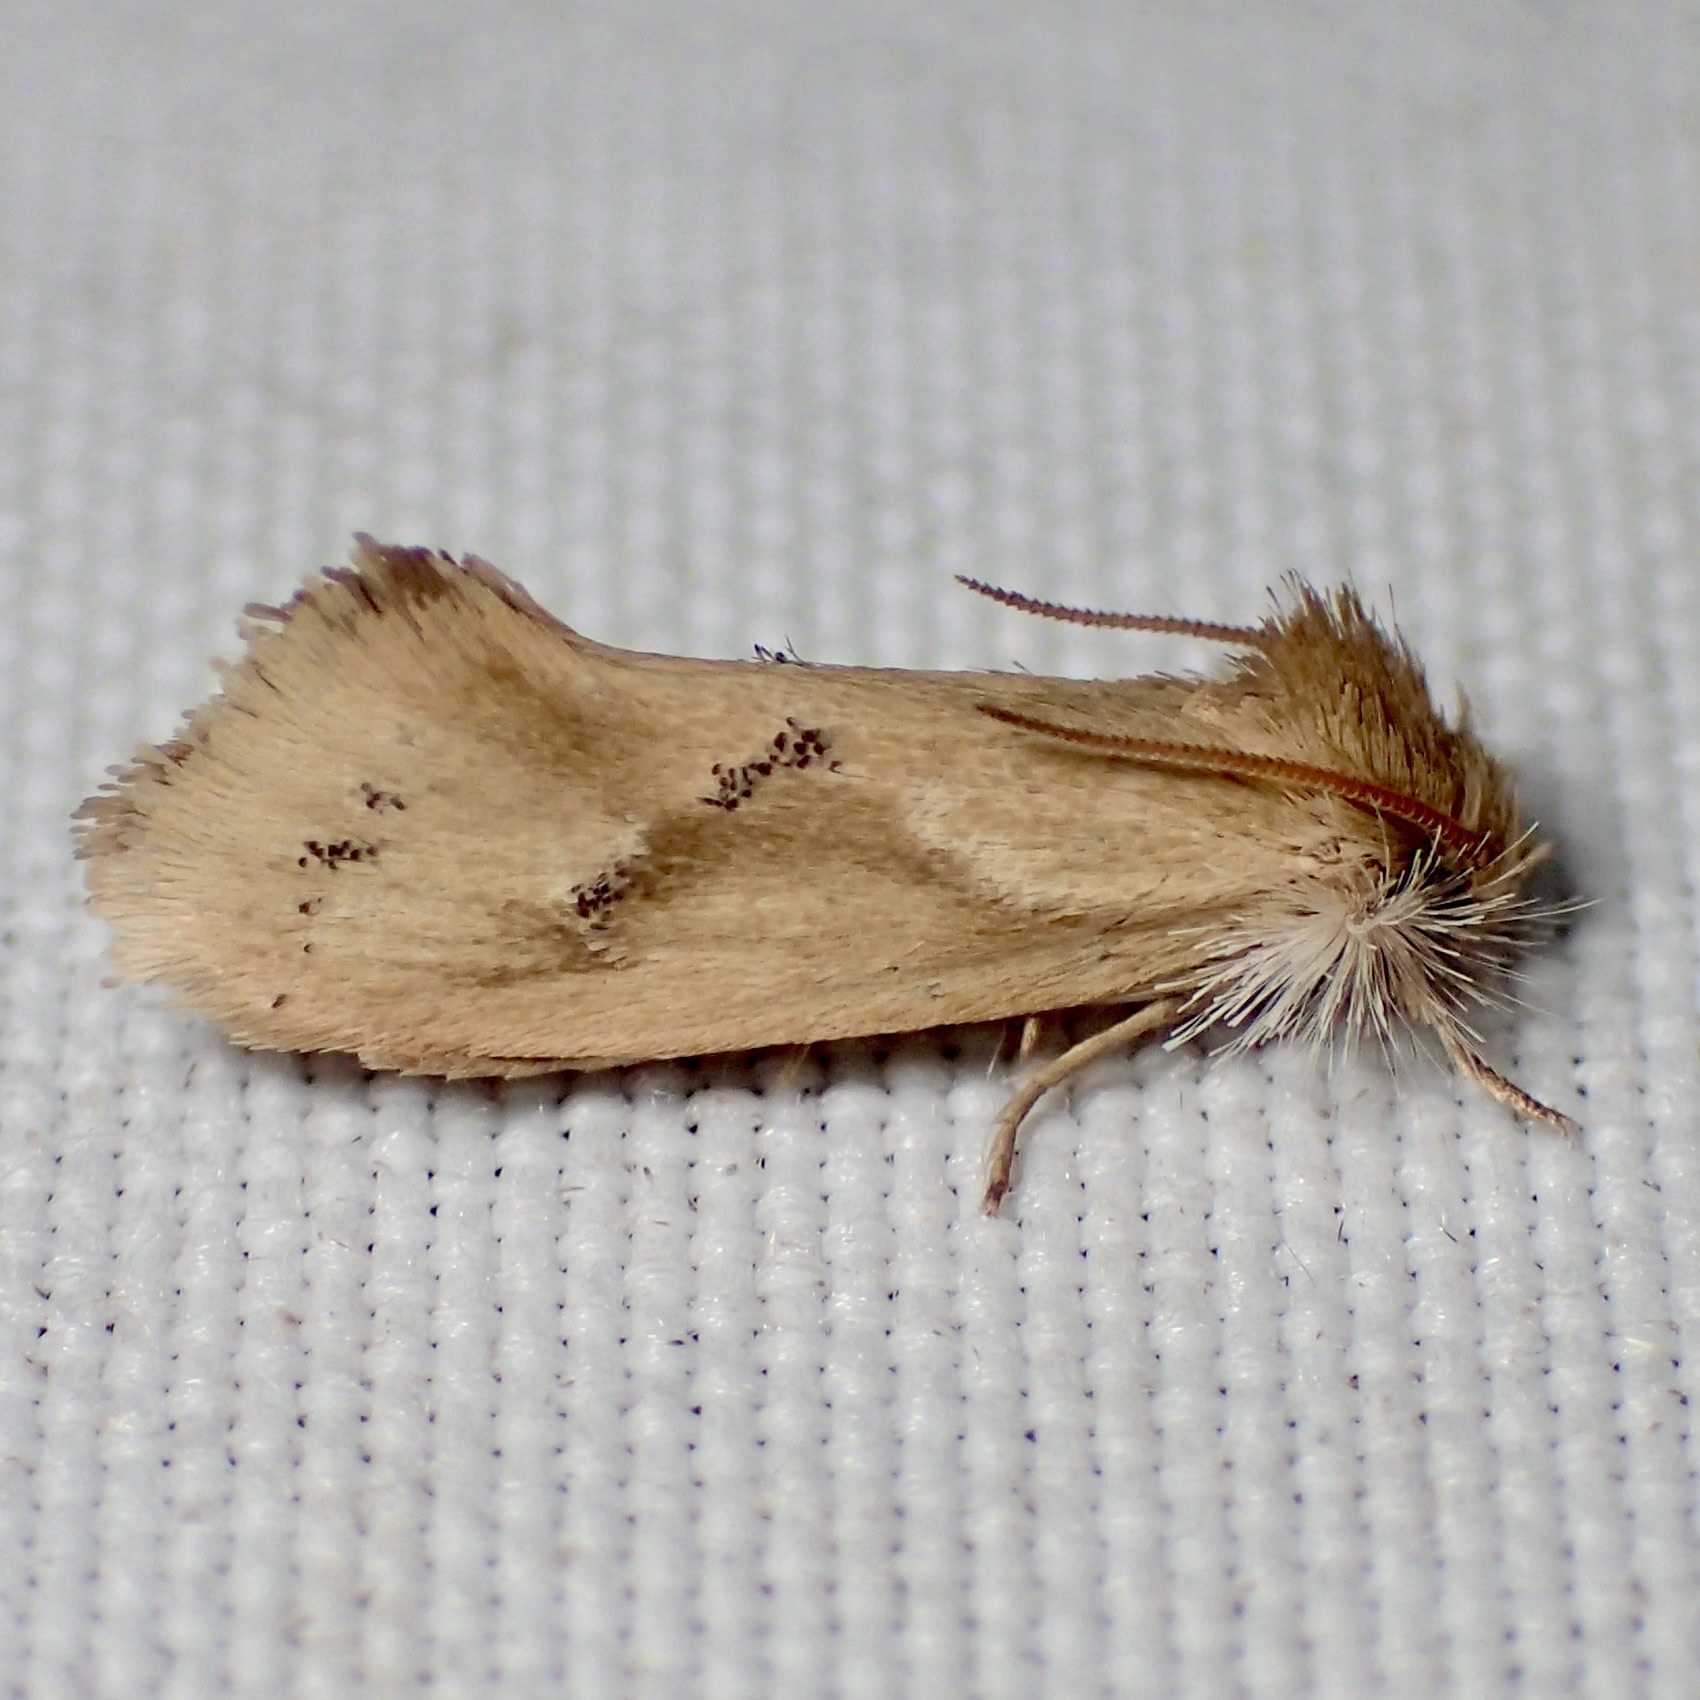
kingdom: Animalia
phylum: Arthropoda
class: Insecta
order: Lepidoptera
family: Tineidae
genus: Acrolophus
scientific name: Acrolophus laticapitana
